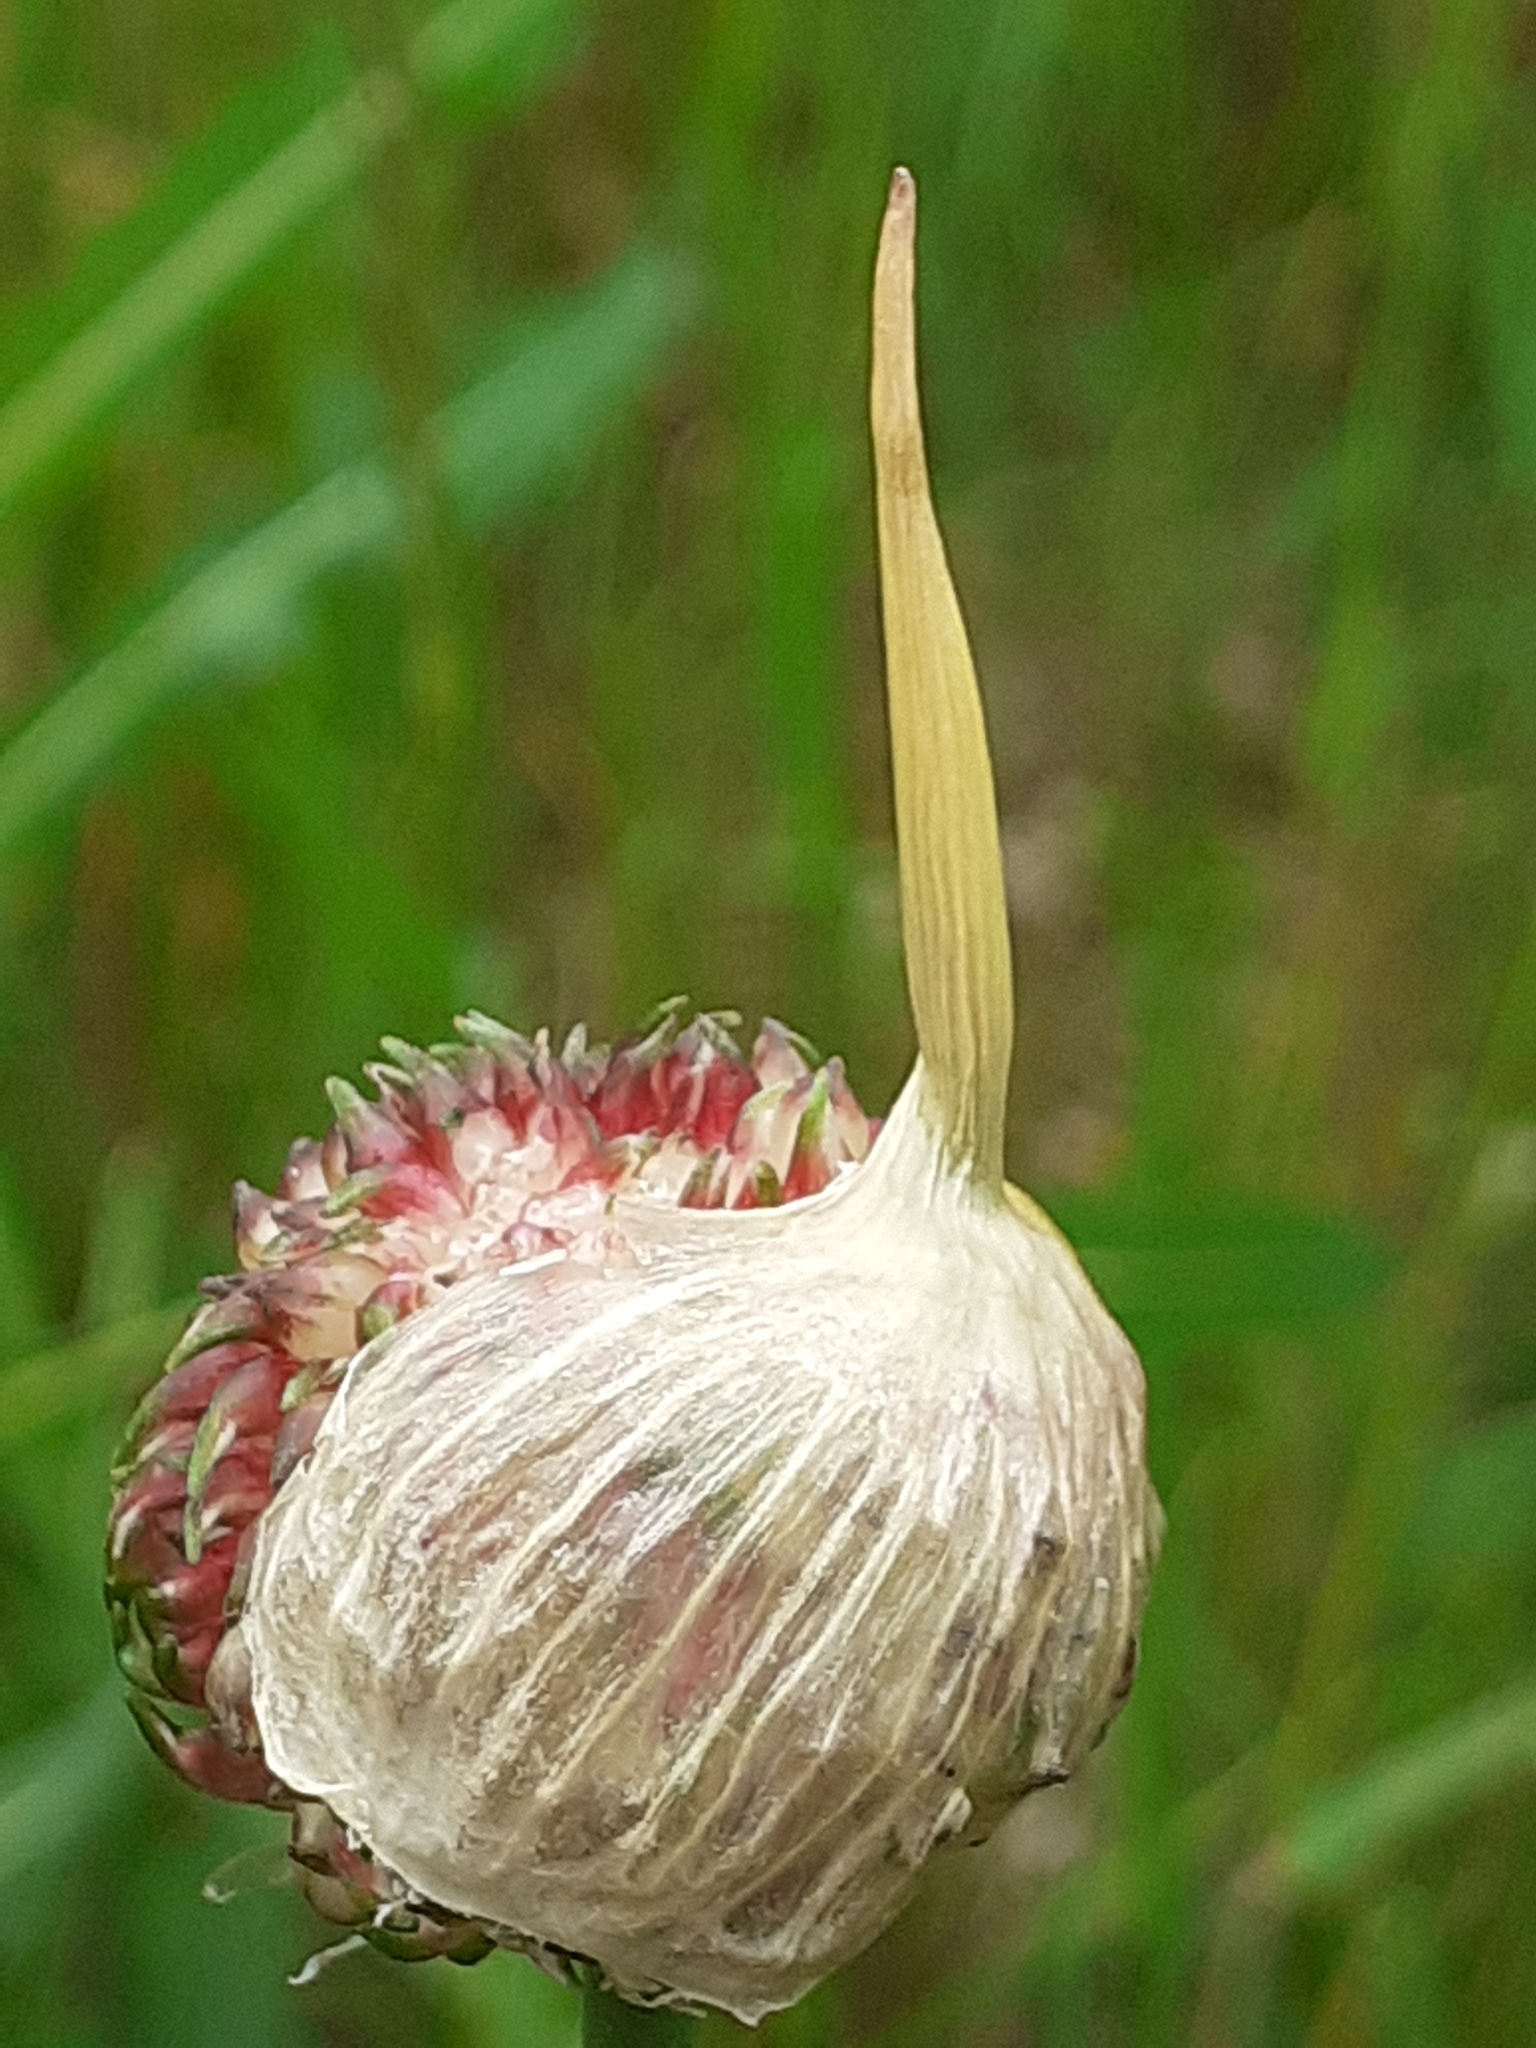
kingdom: Plantae
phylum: Tracheophyta
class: Liliopsida
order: Asparagales
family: Amaryllidaceae
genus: Allium
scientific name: Allium vineale
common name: Crow garlic
